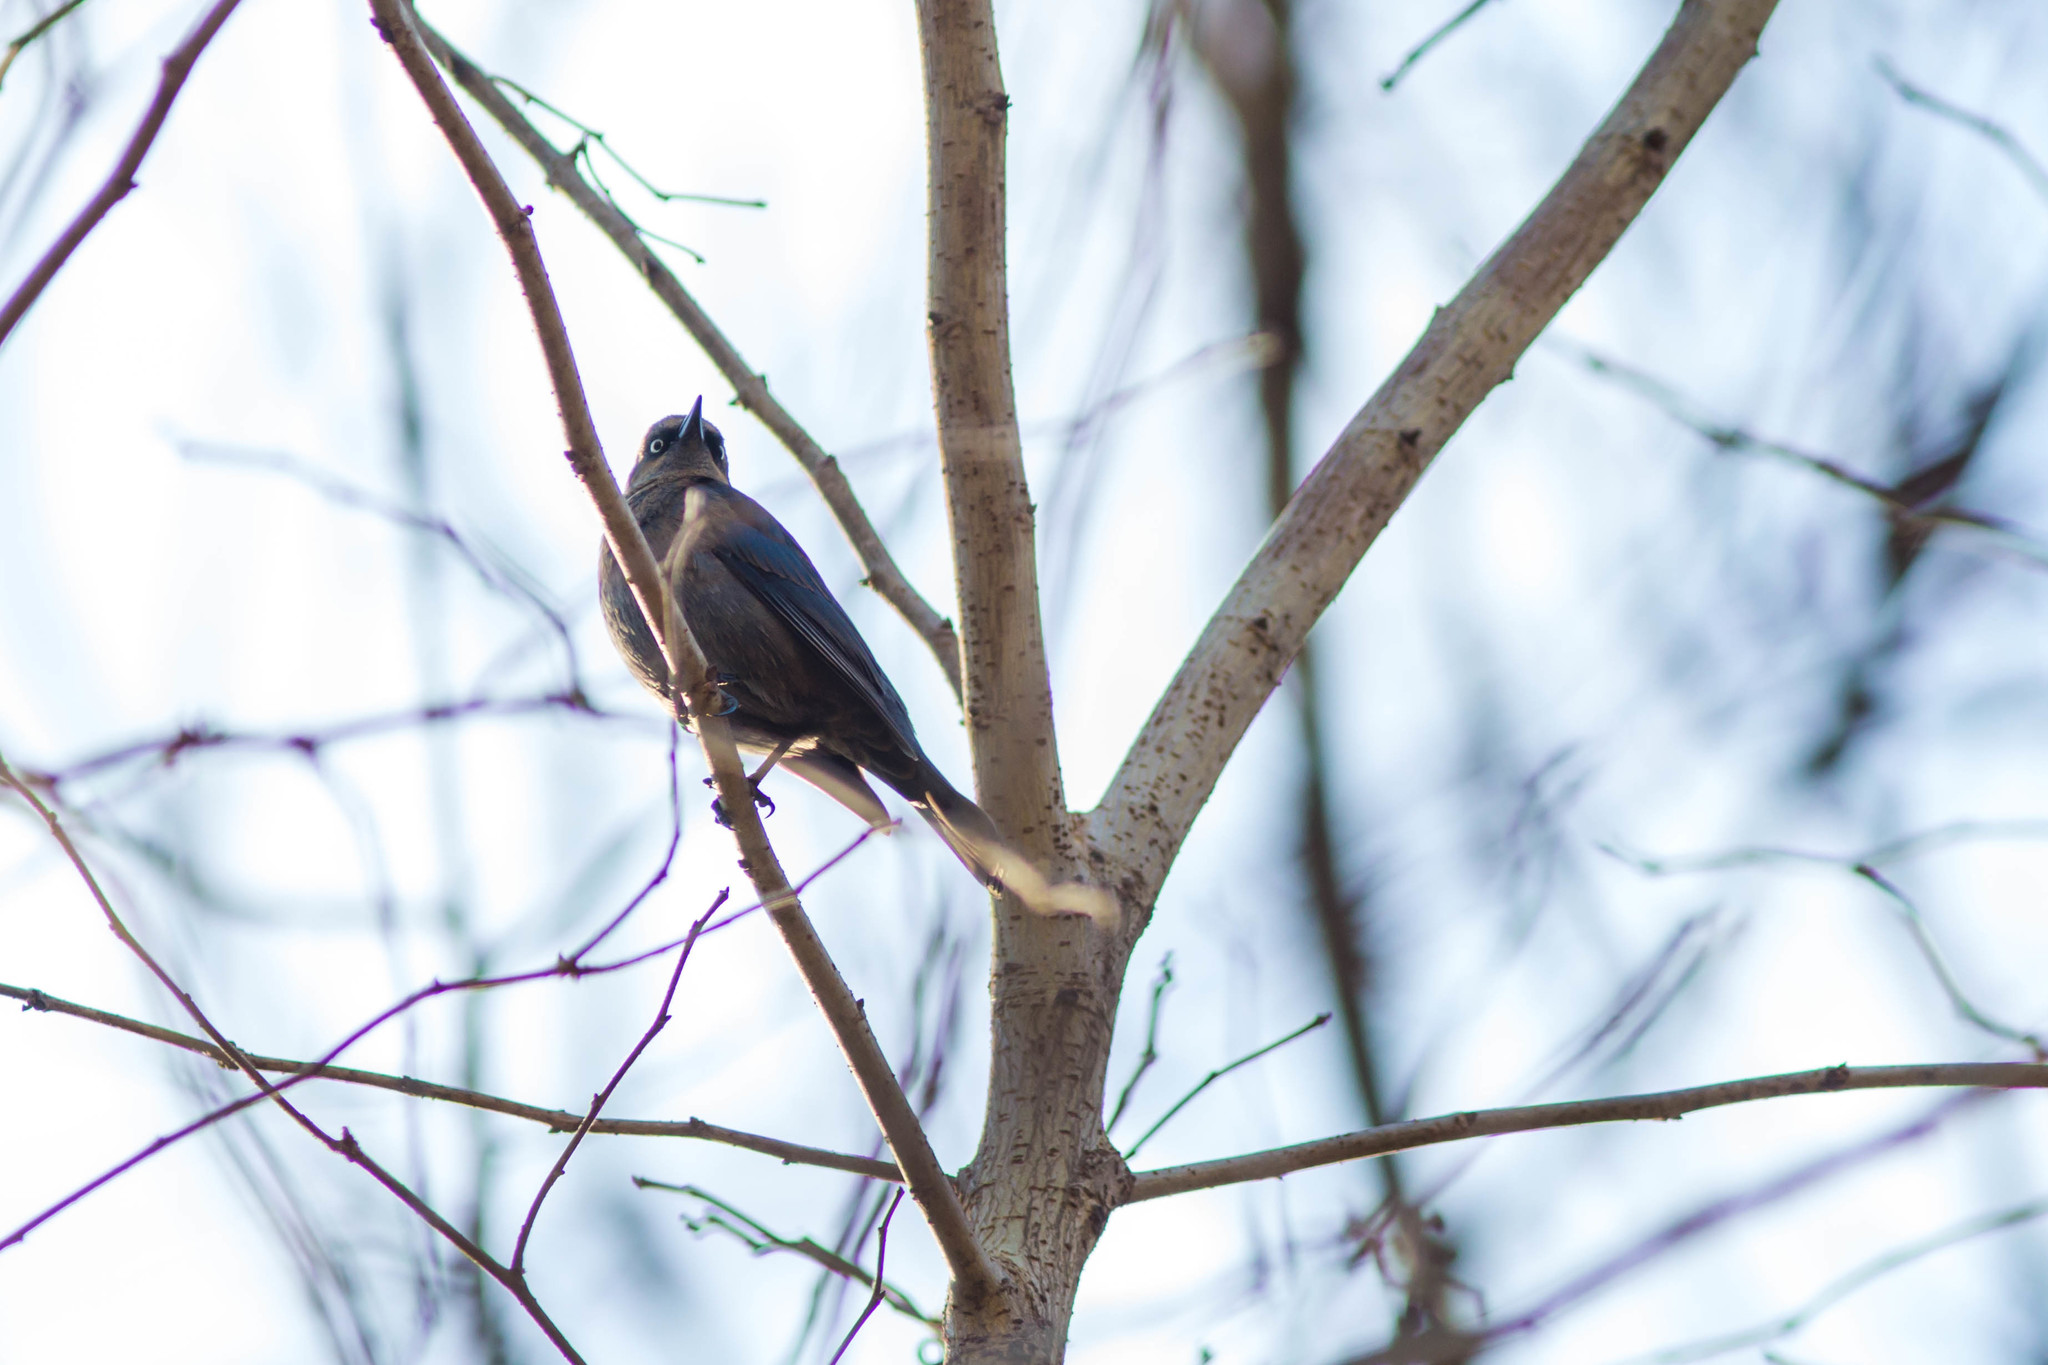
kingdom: Animalia
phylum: Chordata
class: Aves
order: Passeriformes
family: Icteridae
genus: Euphagus
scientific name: Euphagus carolinus
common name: Rusty blackbird
